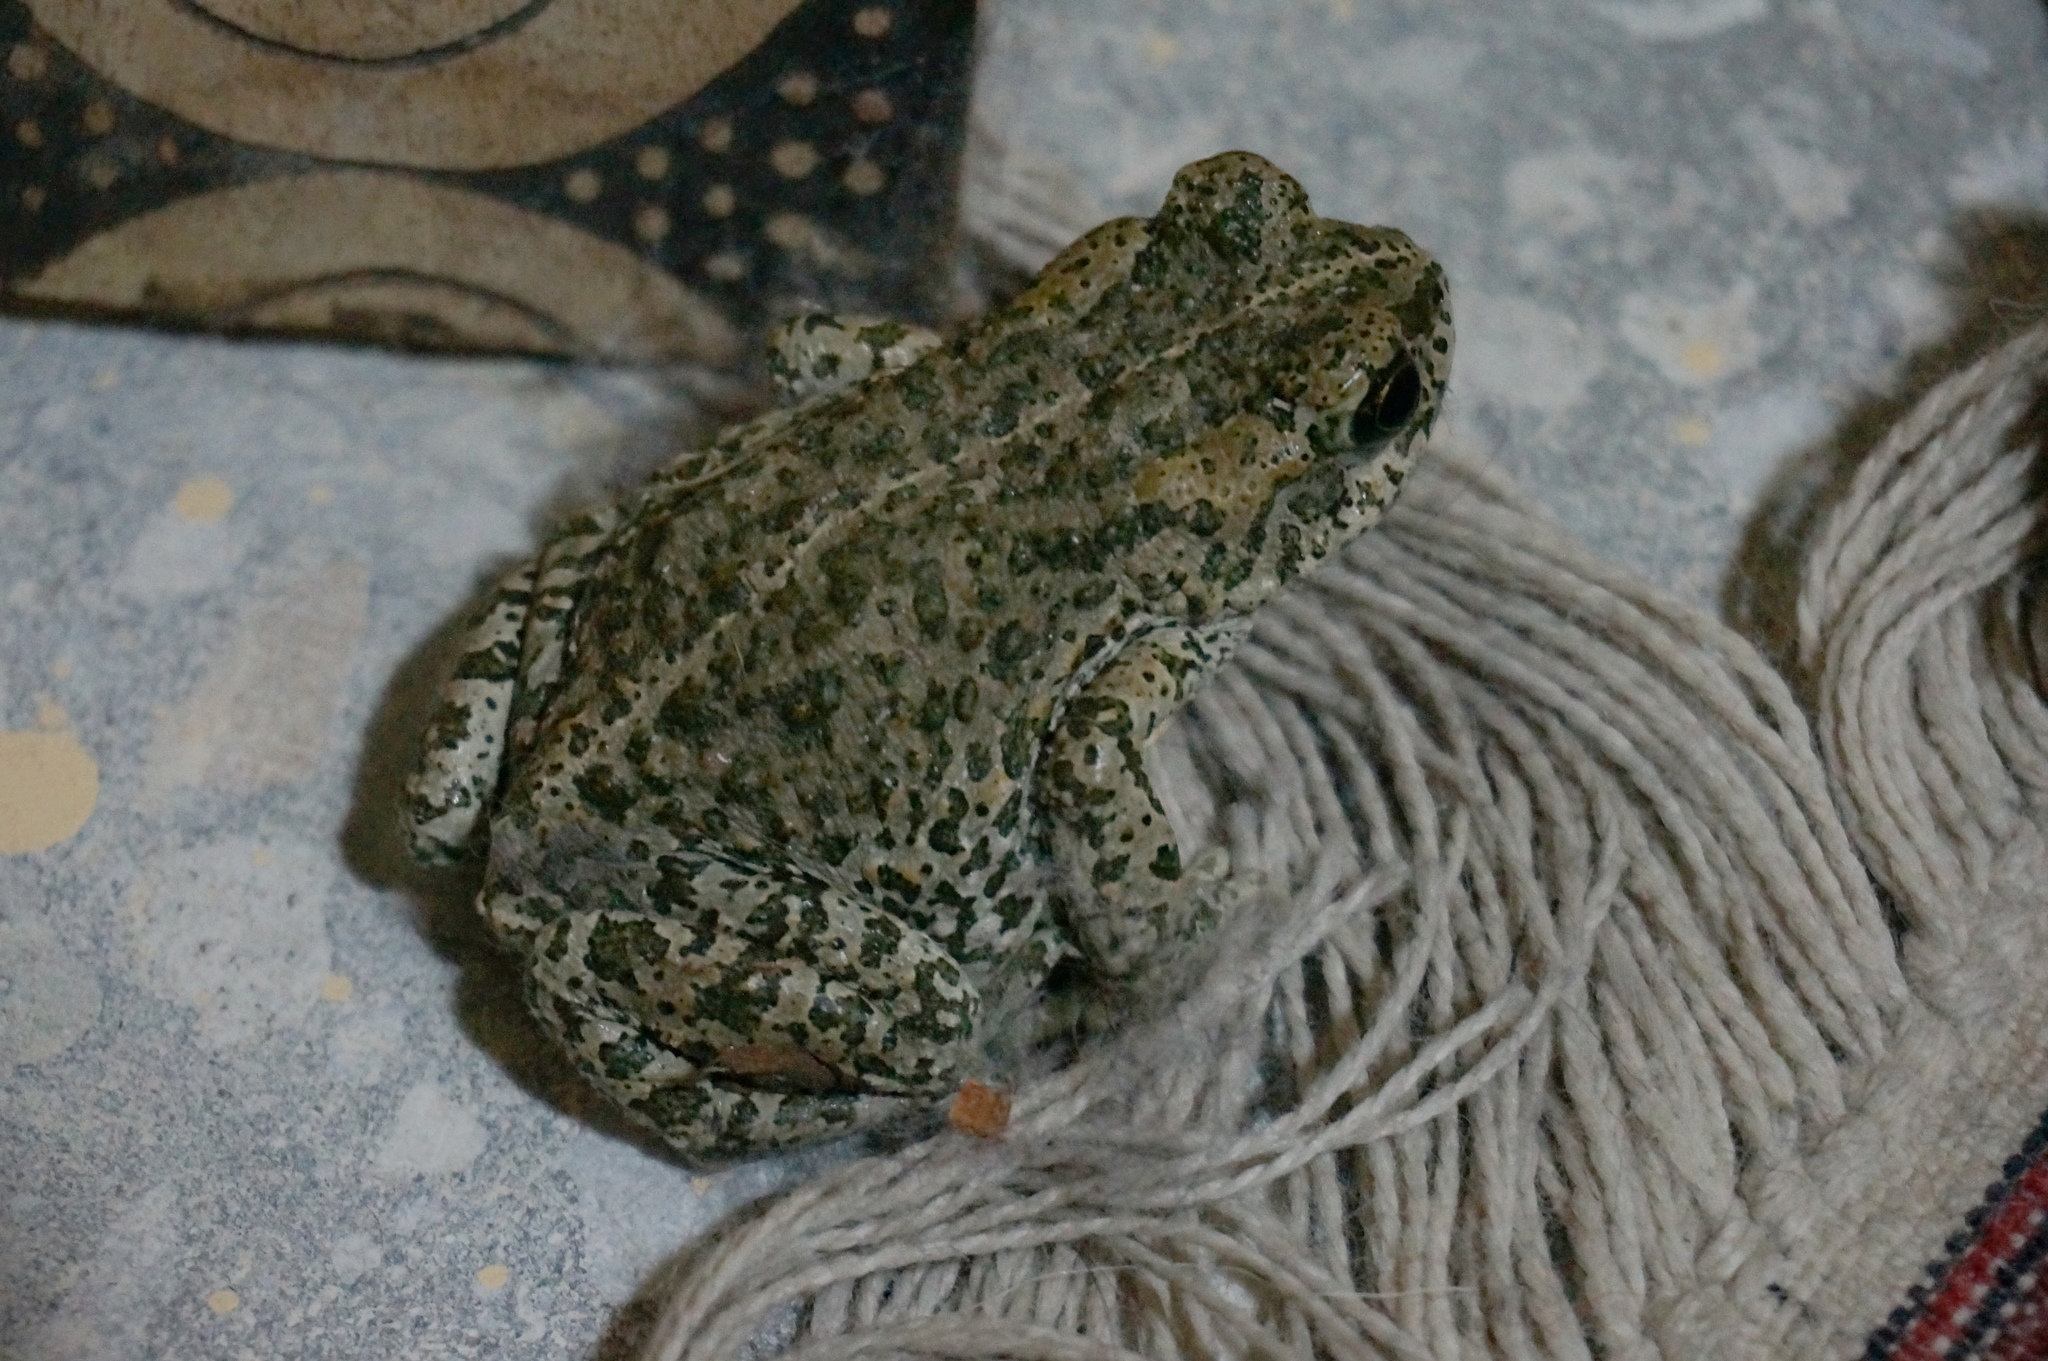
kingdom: Animalia
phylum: Chordata
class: Amphibia
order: Anura
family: Bufonidae
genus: Bufotes
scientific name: Bufotes baturae
